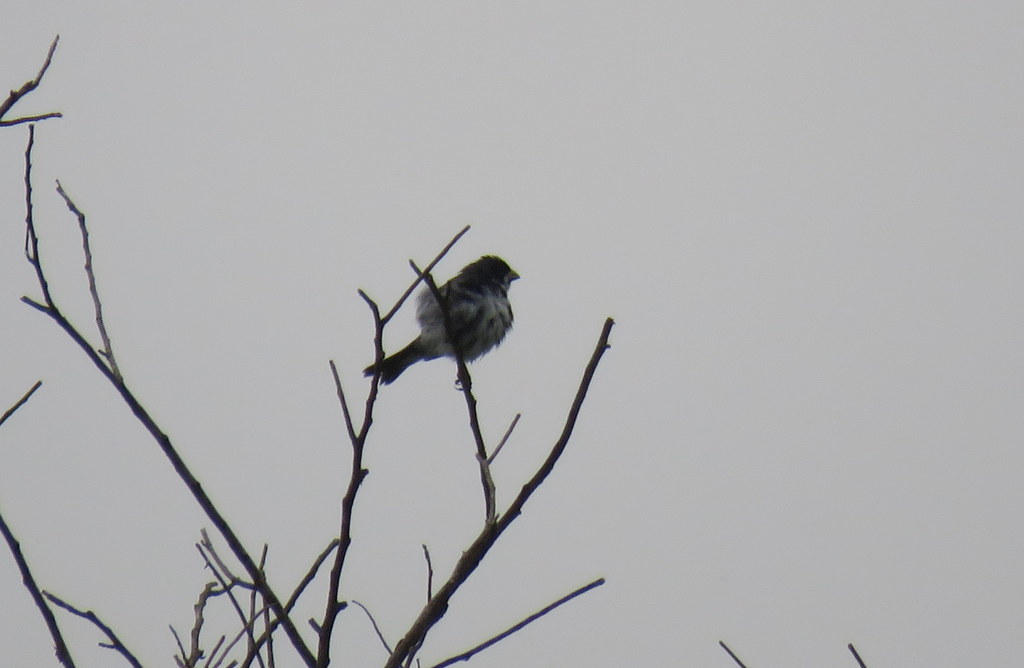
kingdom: Animalia
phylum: Chordata
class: Aves
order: Passeriformes
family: Thraupidae
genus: Sporophila
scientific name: Sporophila caerulescens
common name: Double-collared seedeater
